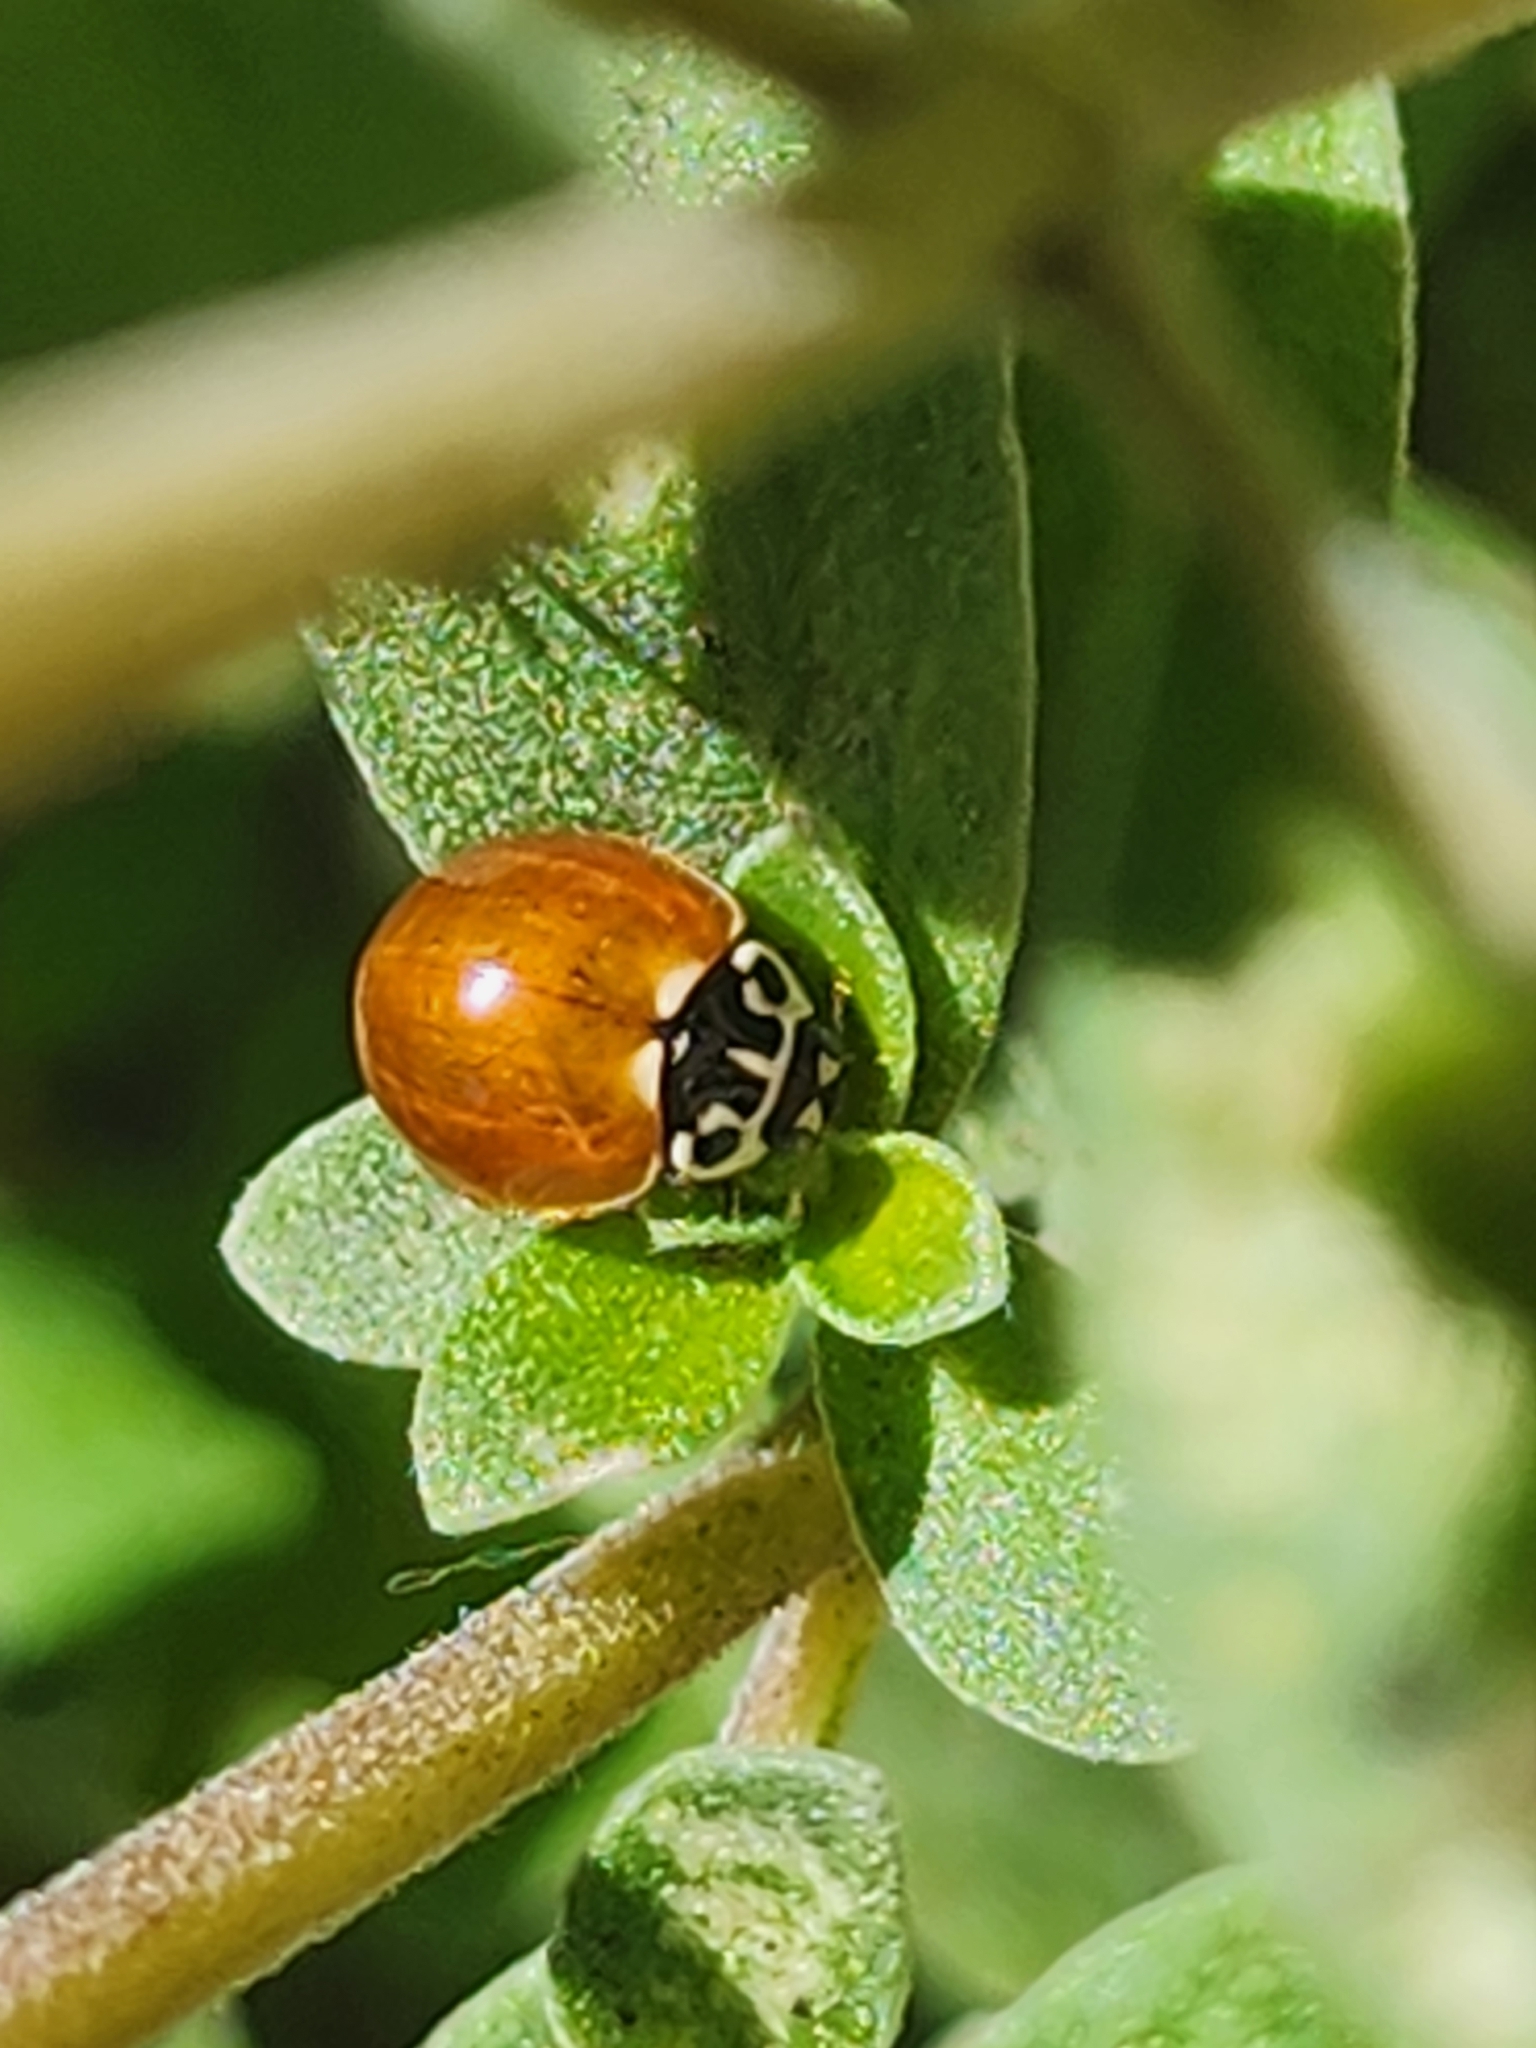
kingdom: Animalia
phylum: Arthropoda
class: Insecta
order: Coleoptera
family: Coccinellidae
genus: Cycloneda
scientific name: Cycloneda polita
